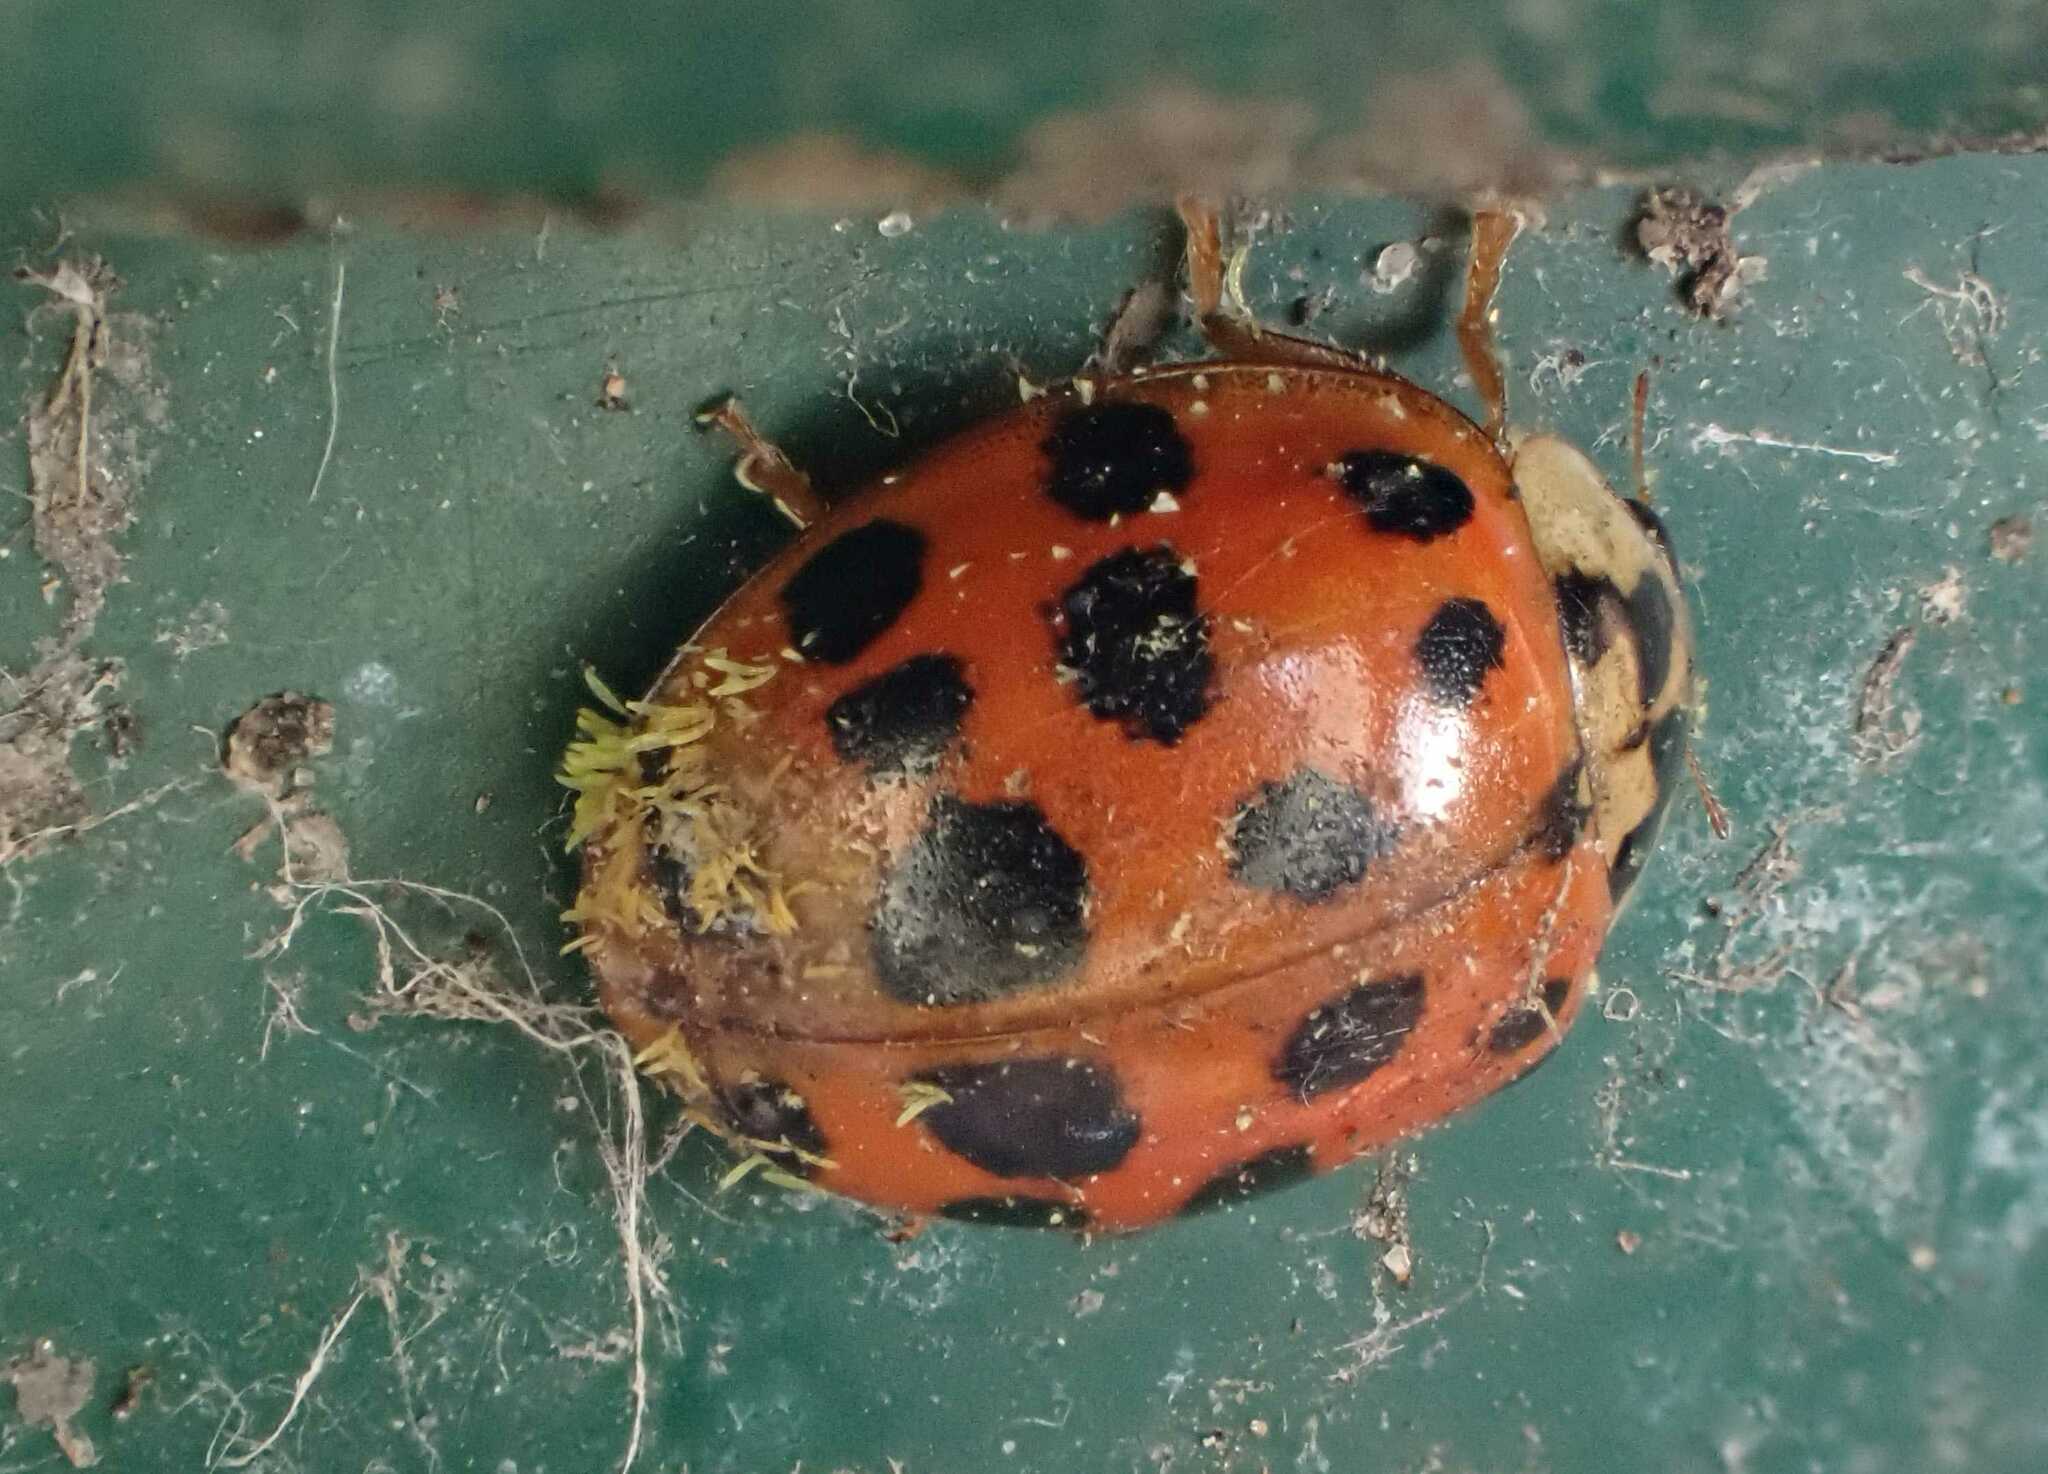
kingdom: Animalia
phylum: Arthropoda
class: Insecta
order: Coleoptera
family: Coccinellidae
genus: Harmonia
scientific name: Harmonia axyridis
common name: Harlequin ladybird
